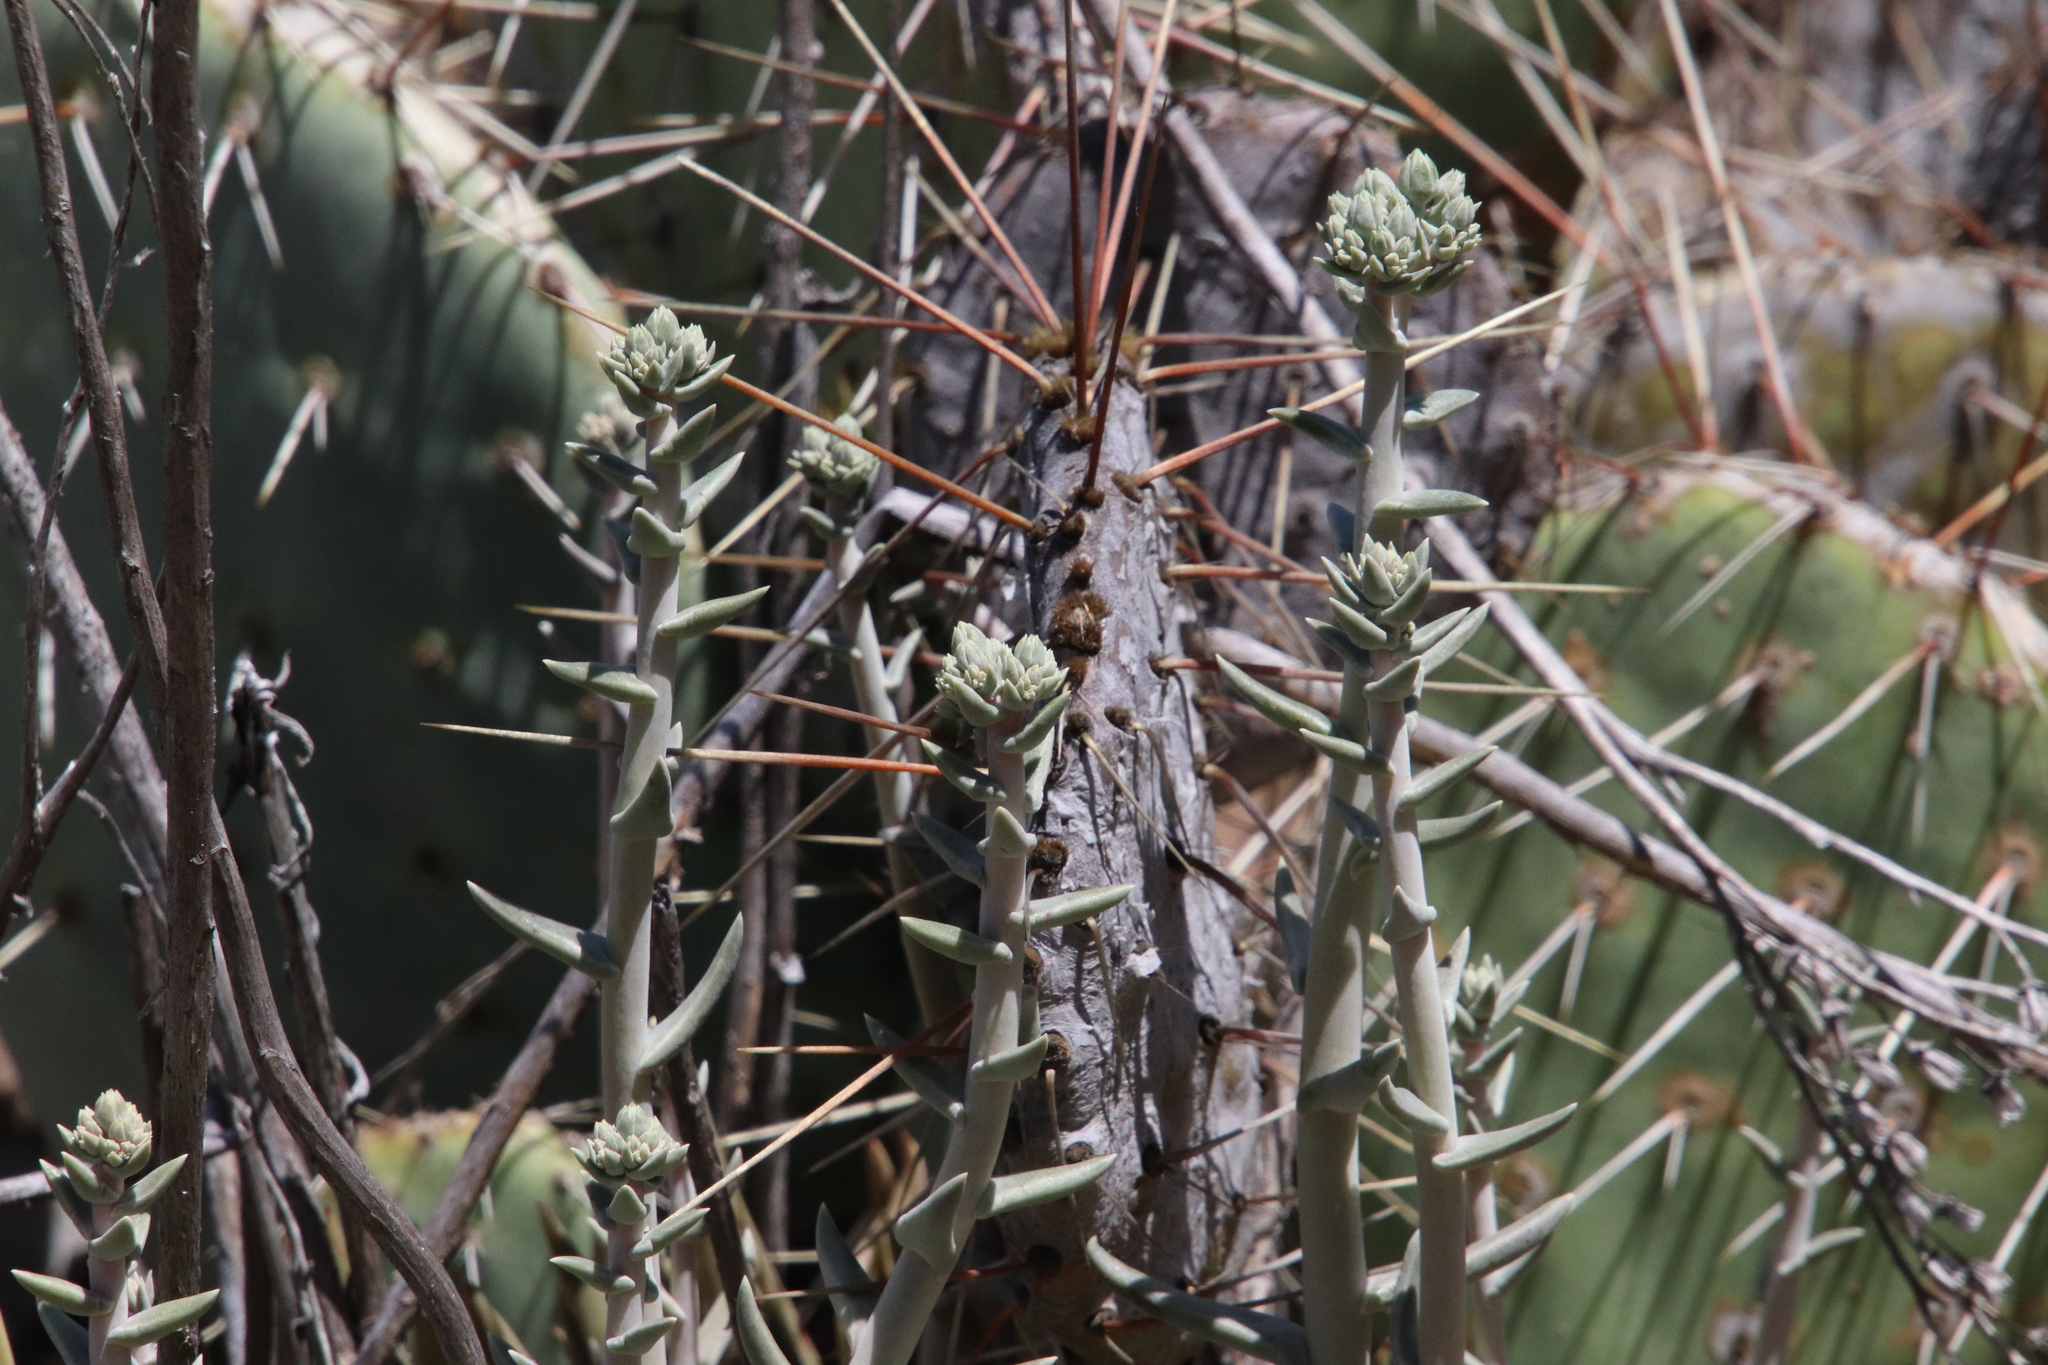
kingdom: Plantae
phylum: Tracheophyta
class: Magnoliopsida
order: Saxifragales
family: Crassulaceae
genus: Dudleya
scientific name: Dudleya saxosa
